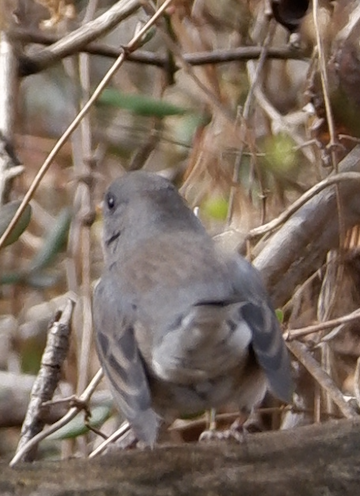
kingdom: Animalia
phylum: Chordata
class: Aves
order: Passeriformes
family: Passerellidae
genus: Junco
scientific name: Junco hyemalis
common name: Dark-eyed junco
